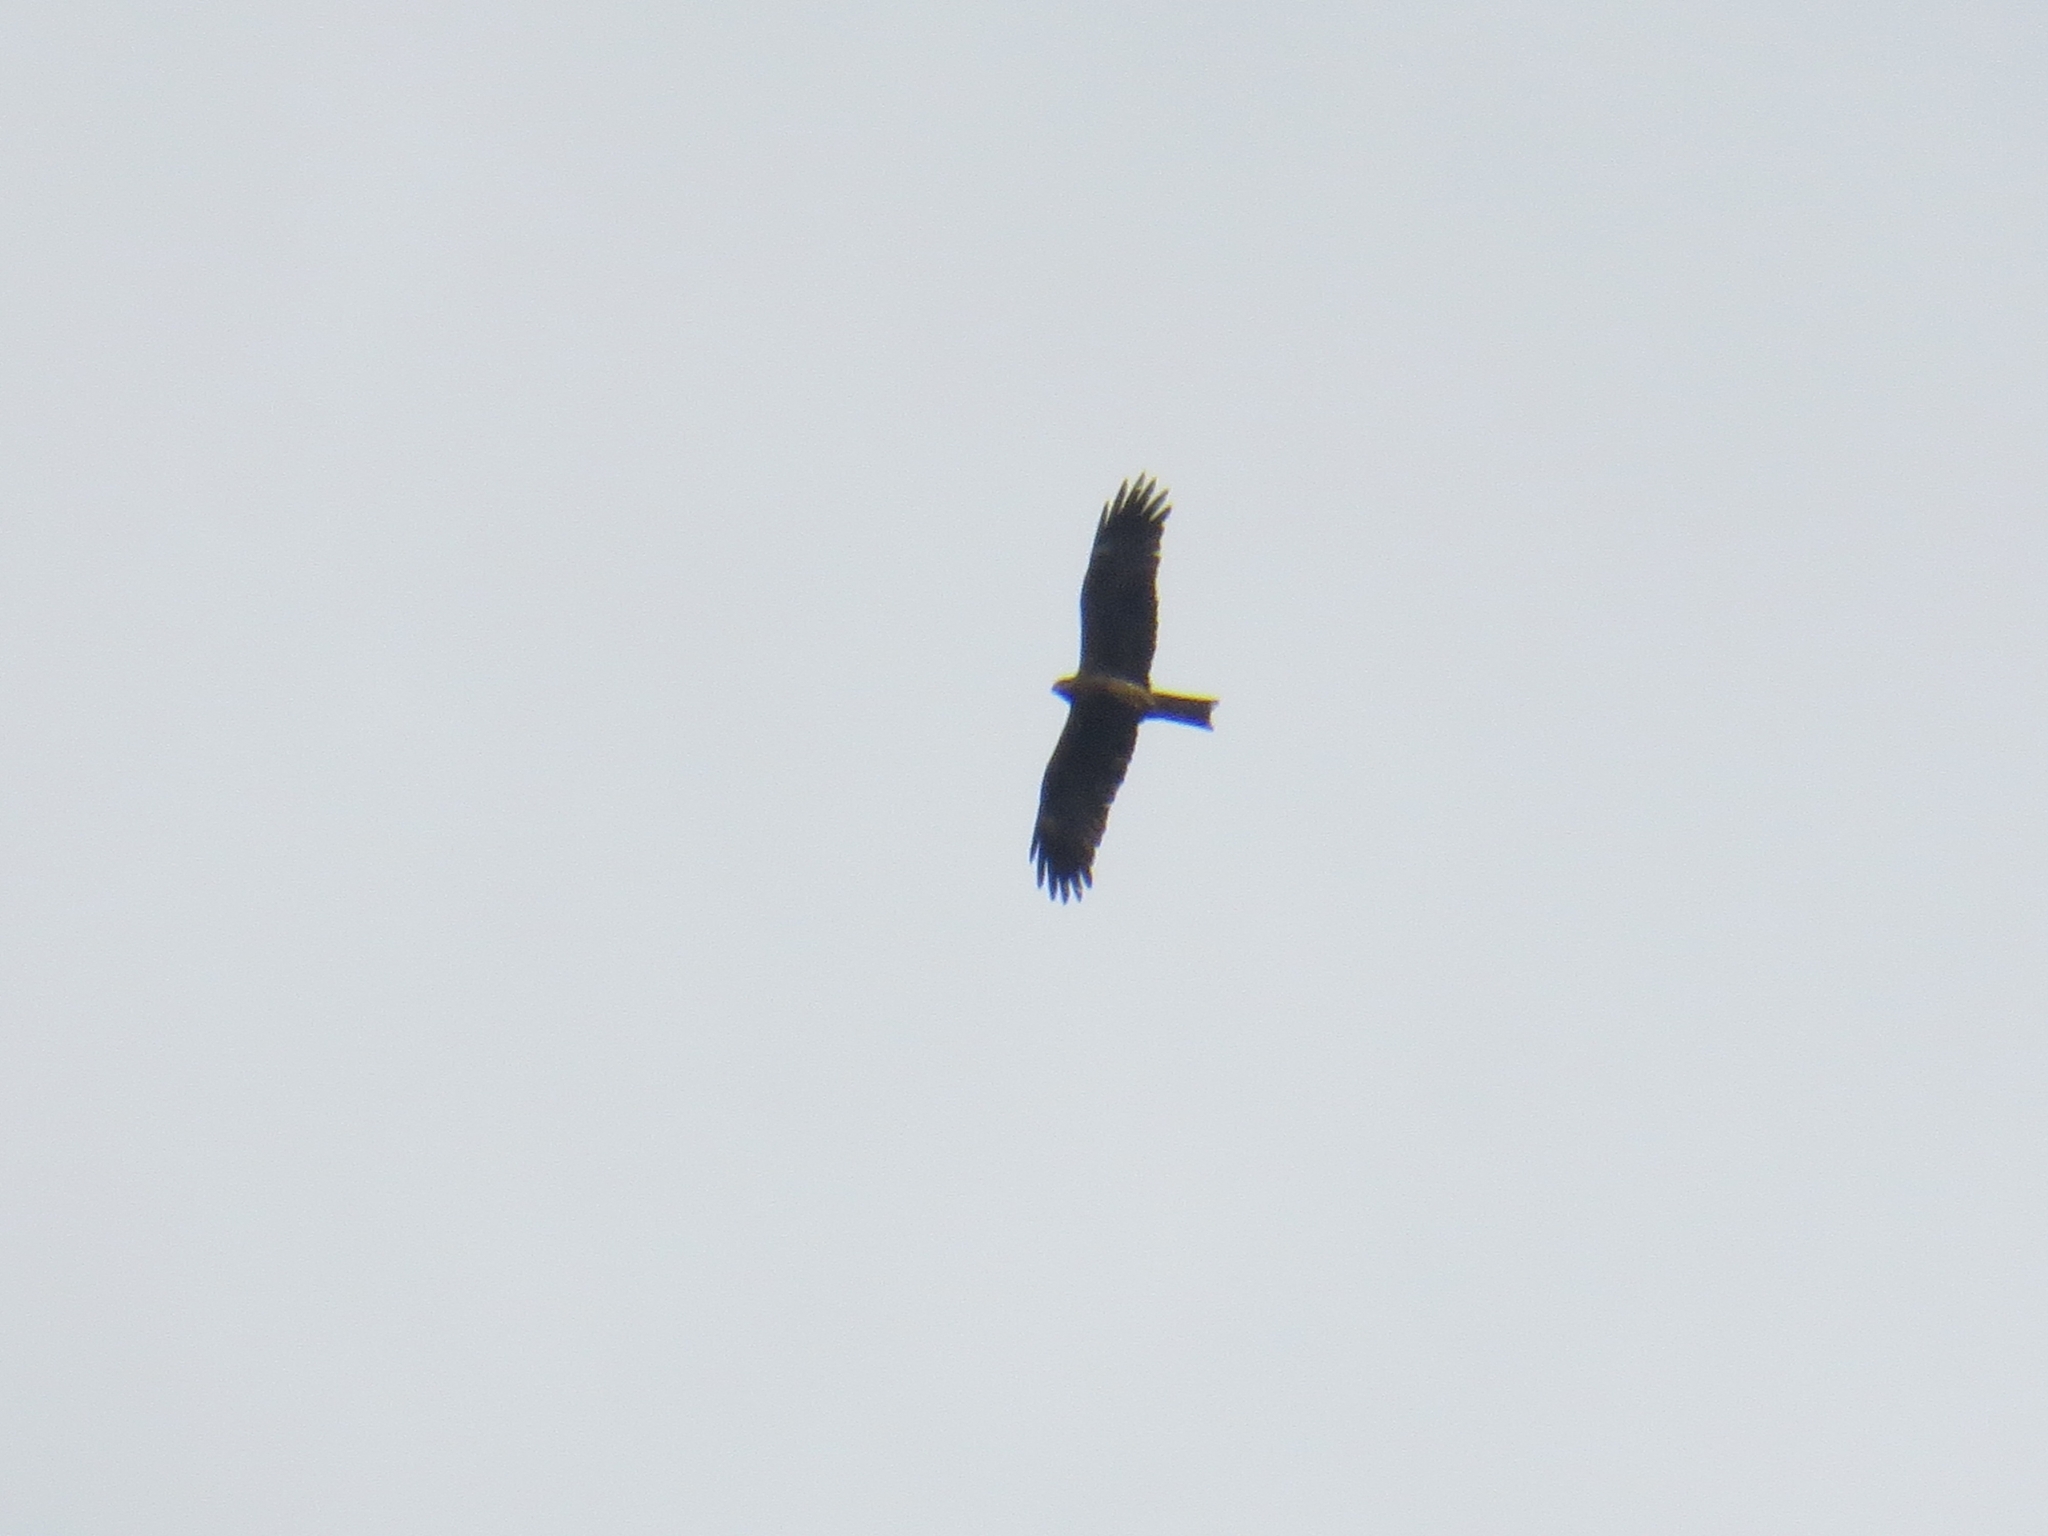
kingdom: Animalia
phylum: Chordata
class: Aves
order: Accipitriformes
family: Accipitridae
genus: Milvus
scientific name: Milvus migrans
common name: Black kite
